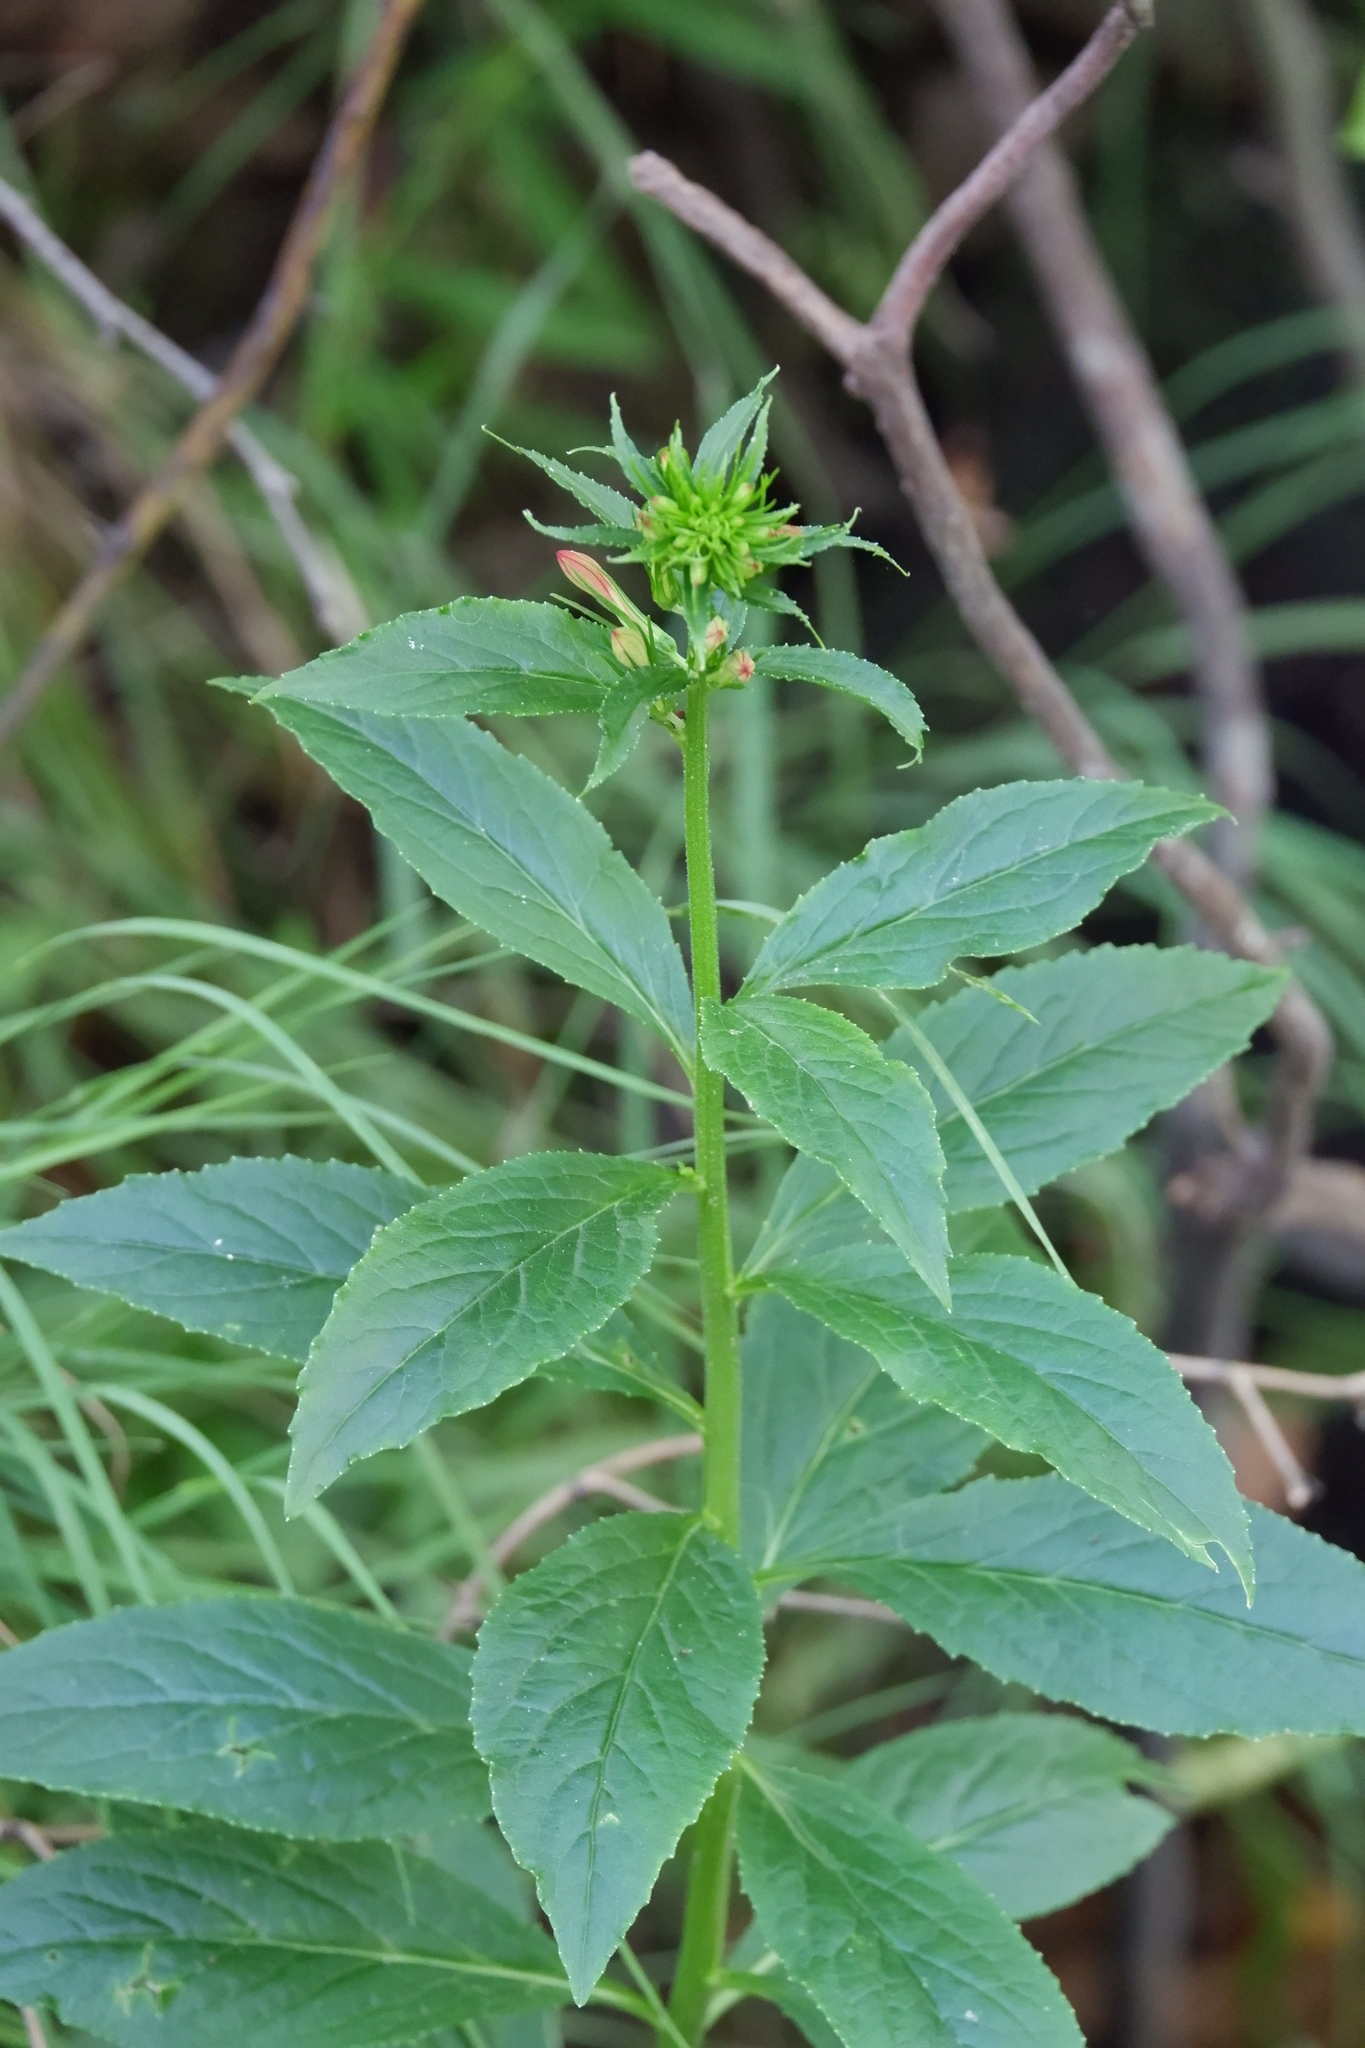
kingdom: Plantae
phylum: Tracheophyta
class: Magnoliopsida
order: Asterales
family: Campanulaceae
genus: Lobelia
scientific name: Lobelia cardinalis
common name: Cardinal flower
